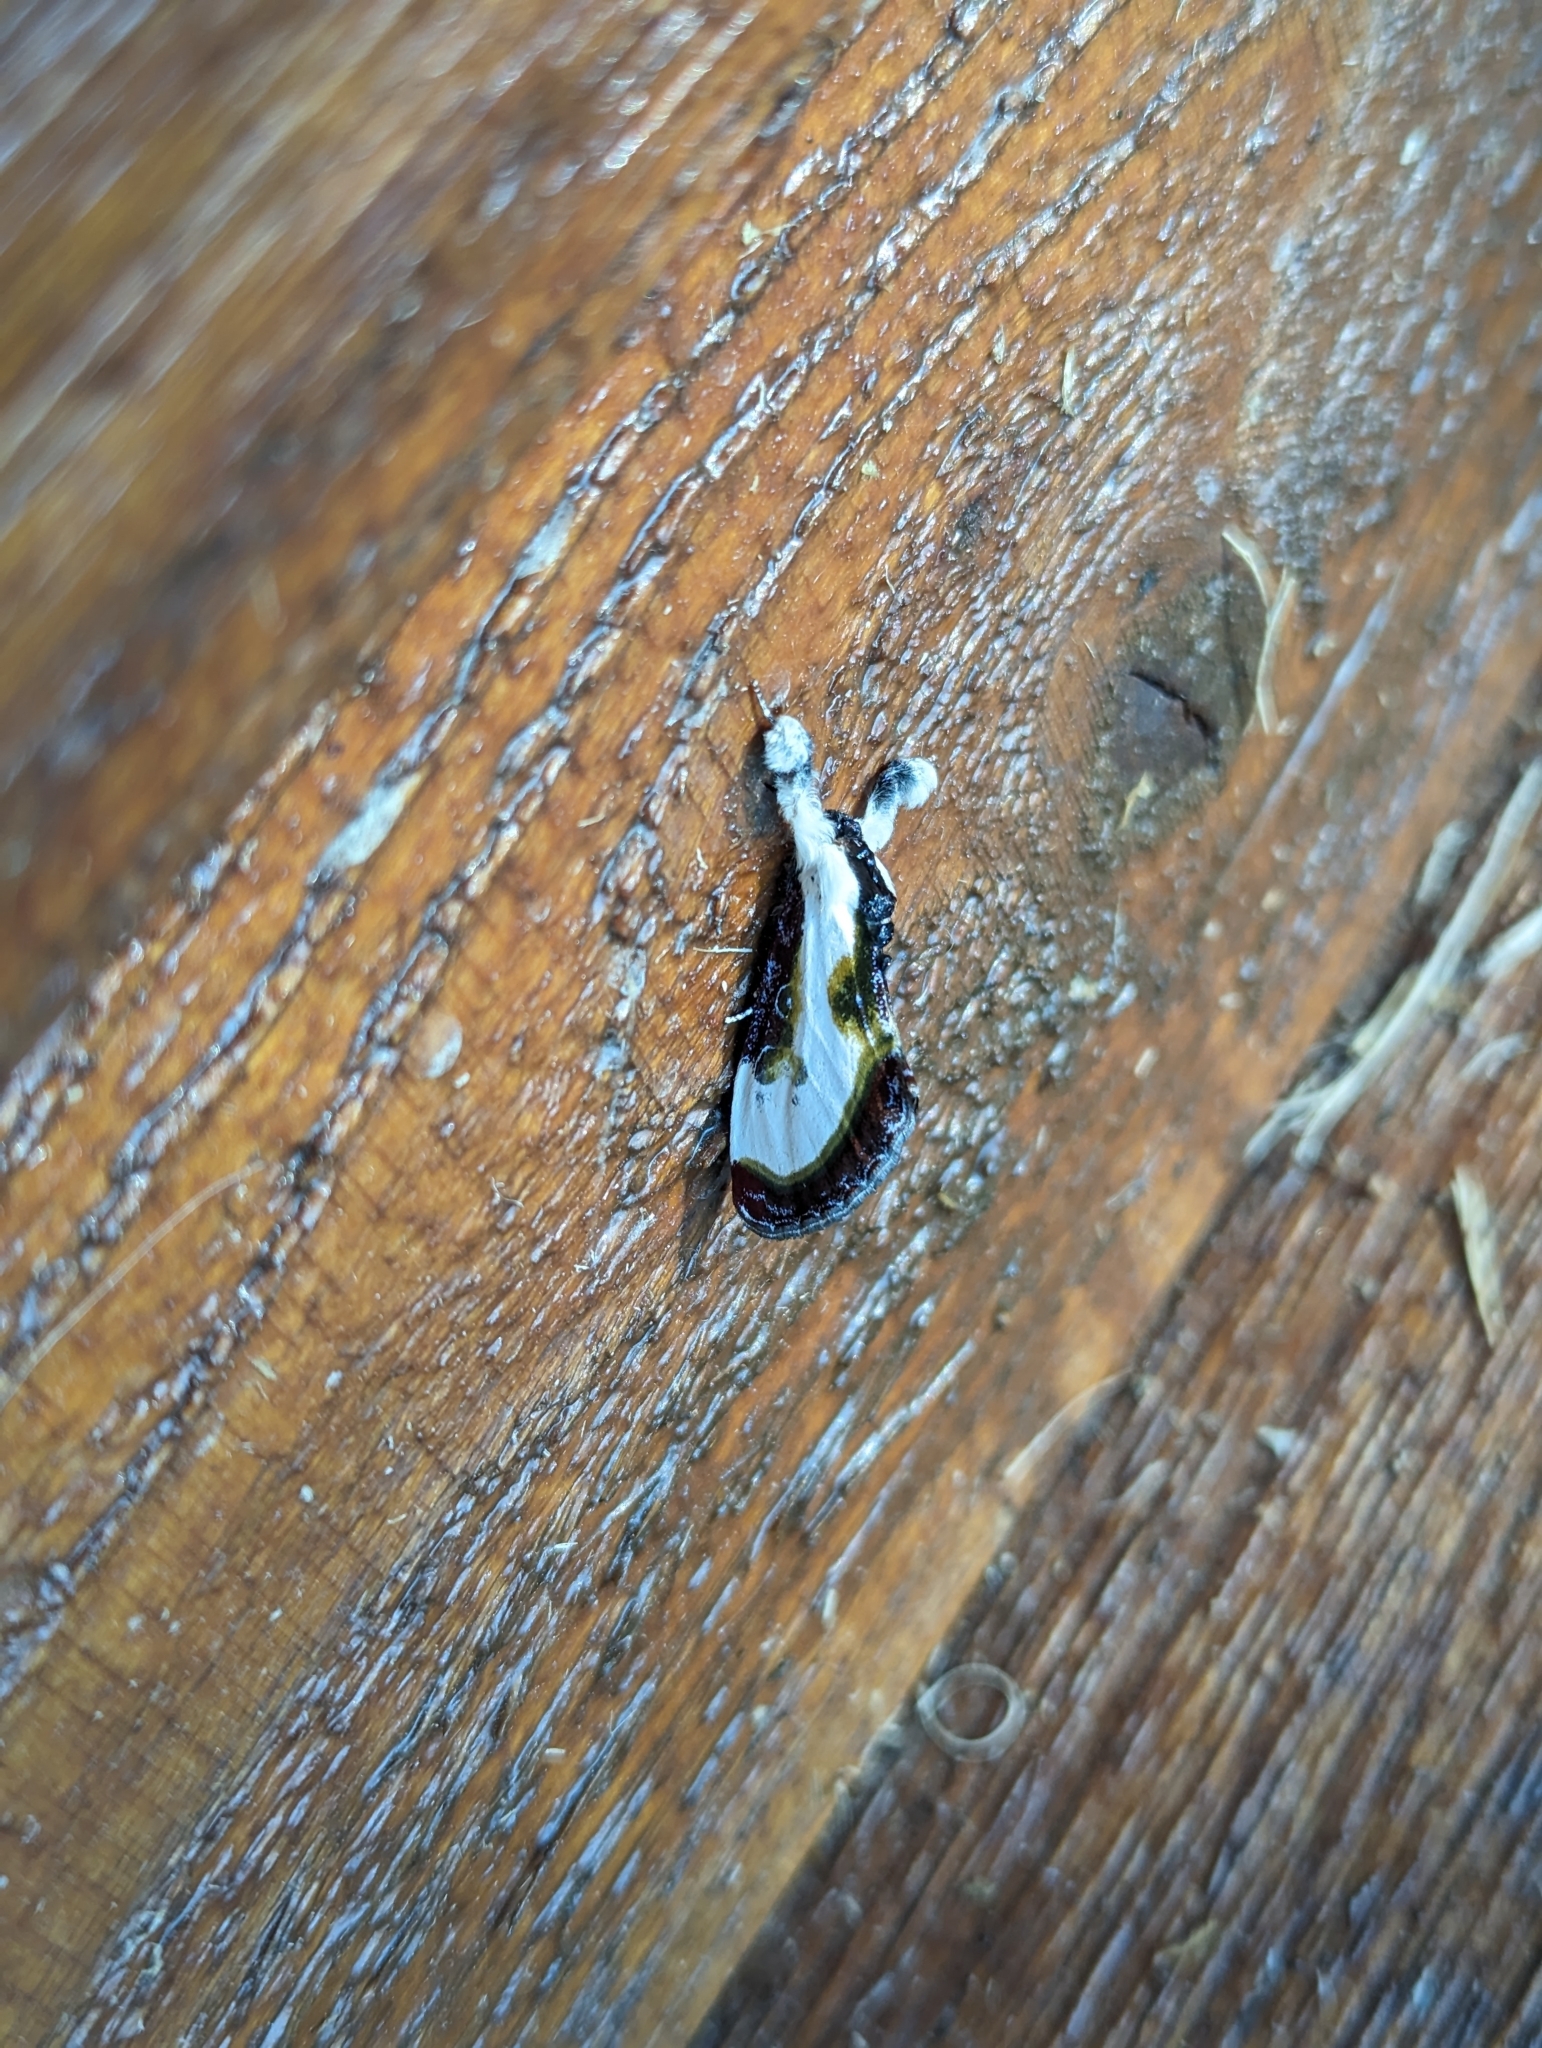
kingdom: Animalia
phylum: Arthropoda
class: Insecta
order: Lepidoptera
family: Noctuidae
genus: Eudryas
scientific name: Eudryas grata
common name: Beautiful wood-nymph
